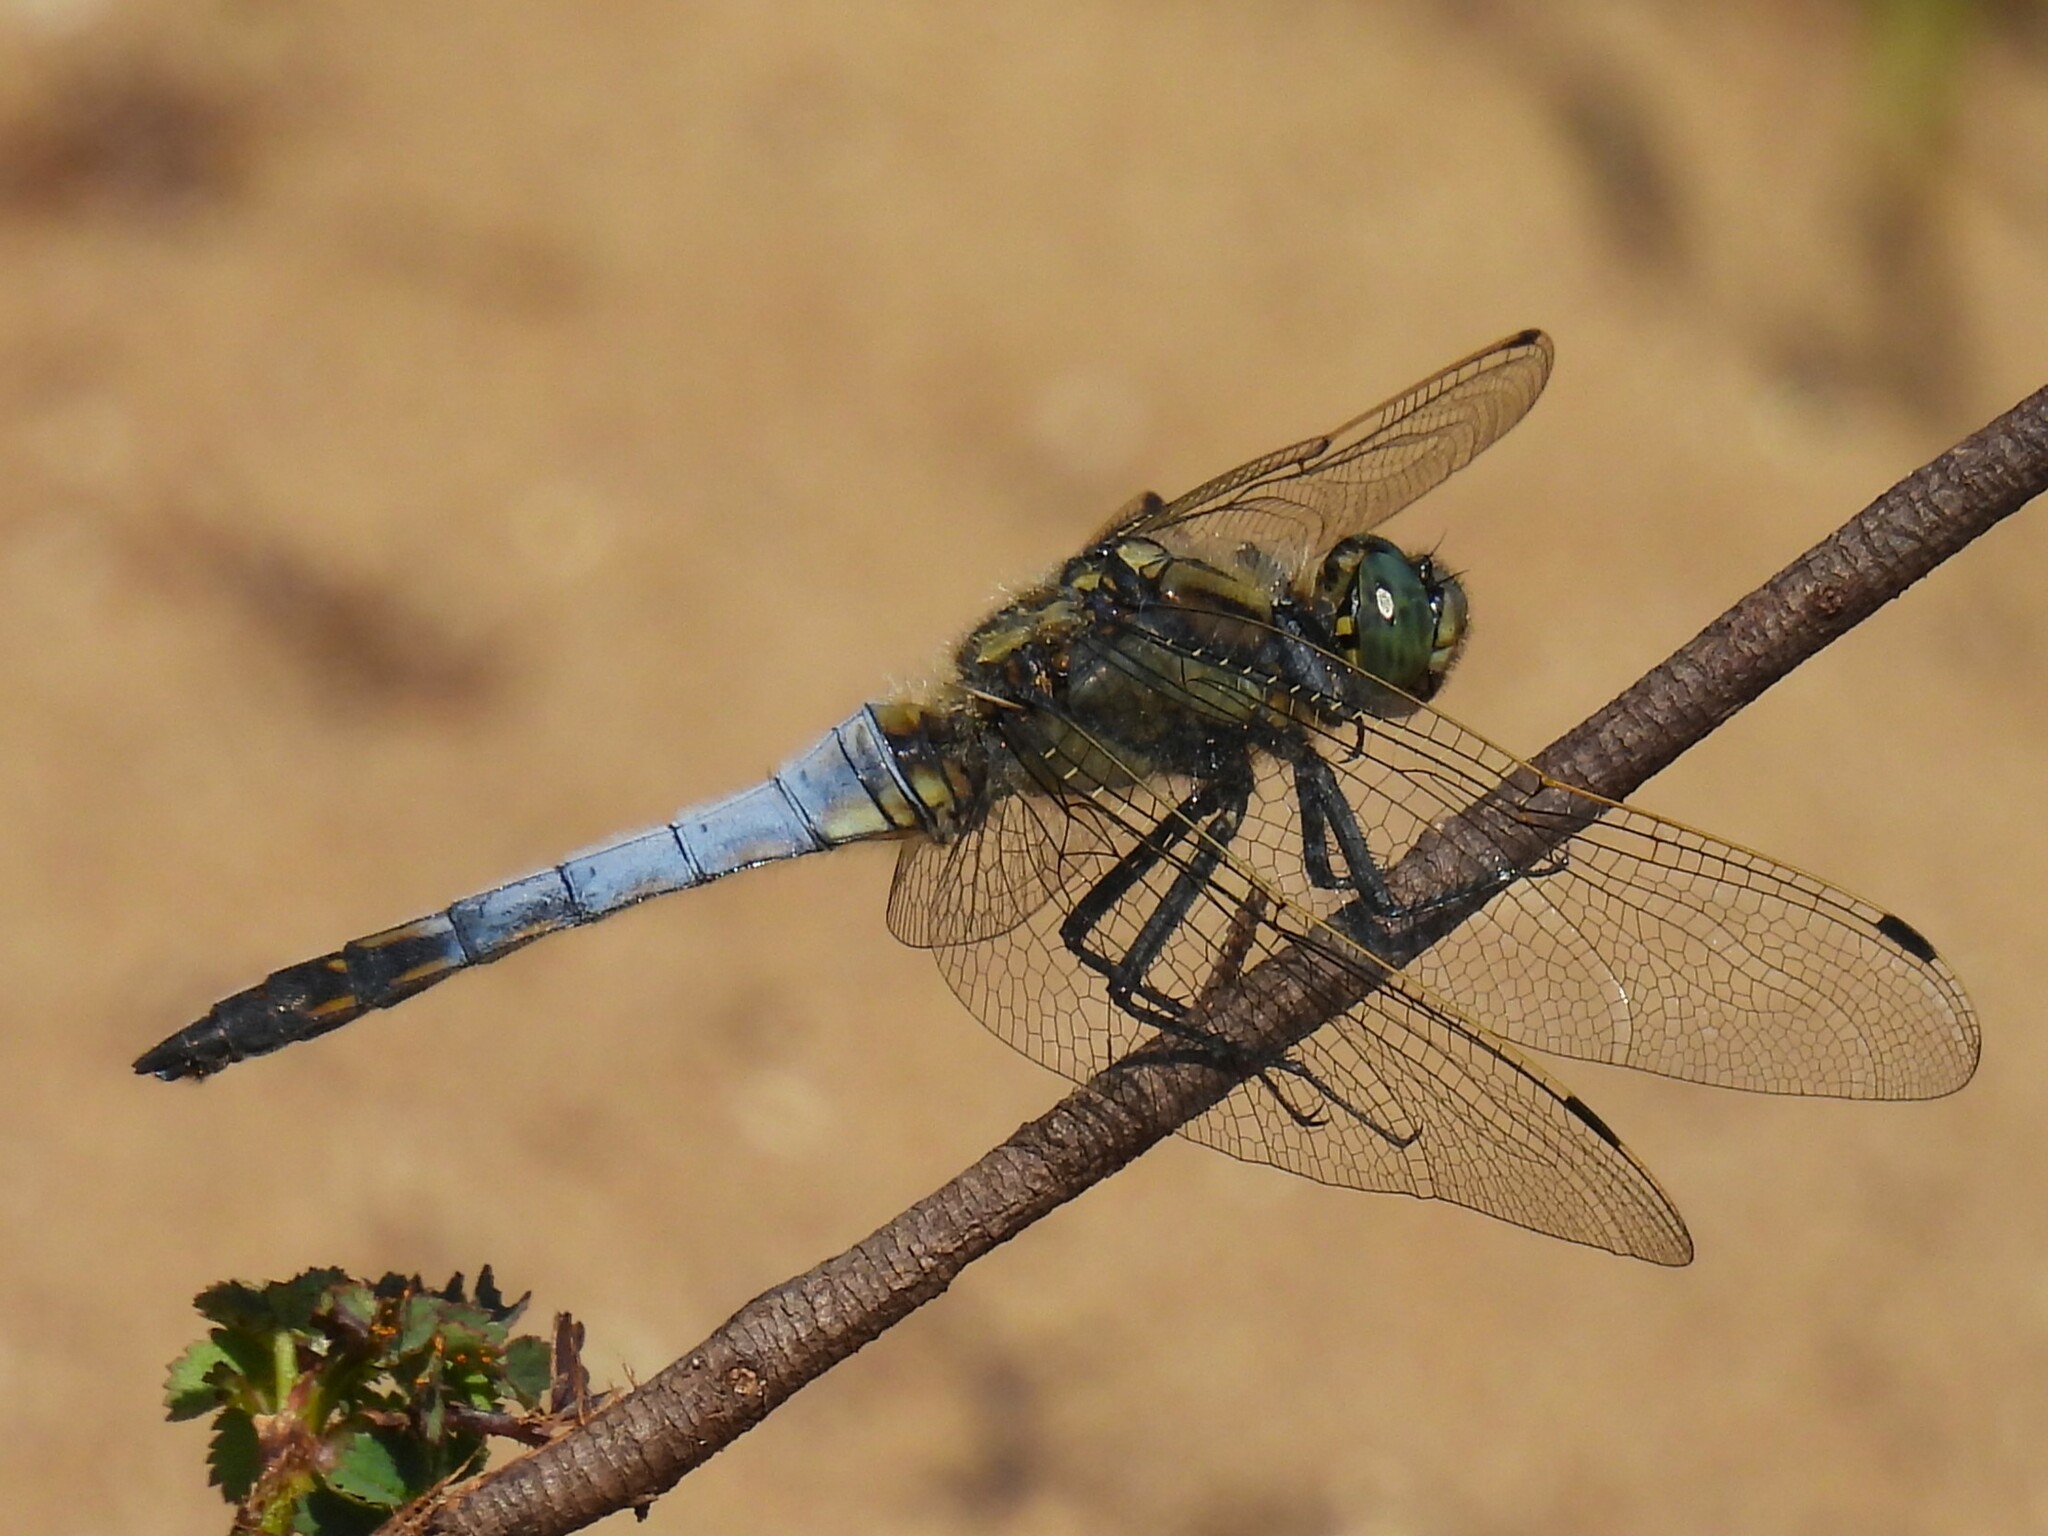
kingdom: Animalia
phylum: Arthropoda
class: Insecta
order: Odonata
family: Libellulidae
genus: Orthetrum
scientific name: Orthetrum cancellatum
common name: Black-tailed skimmer
